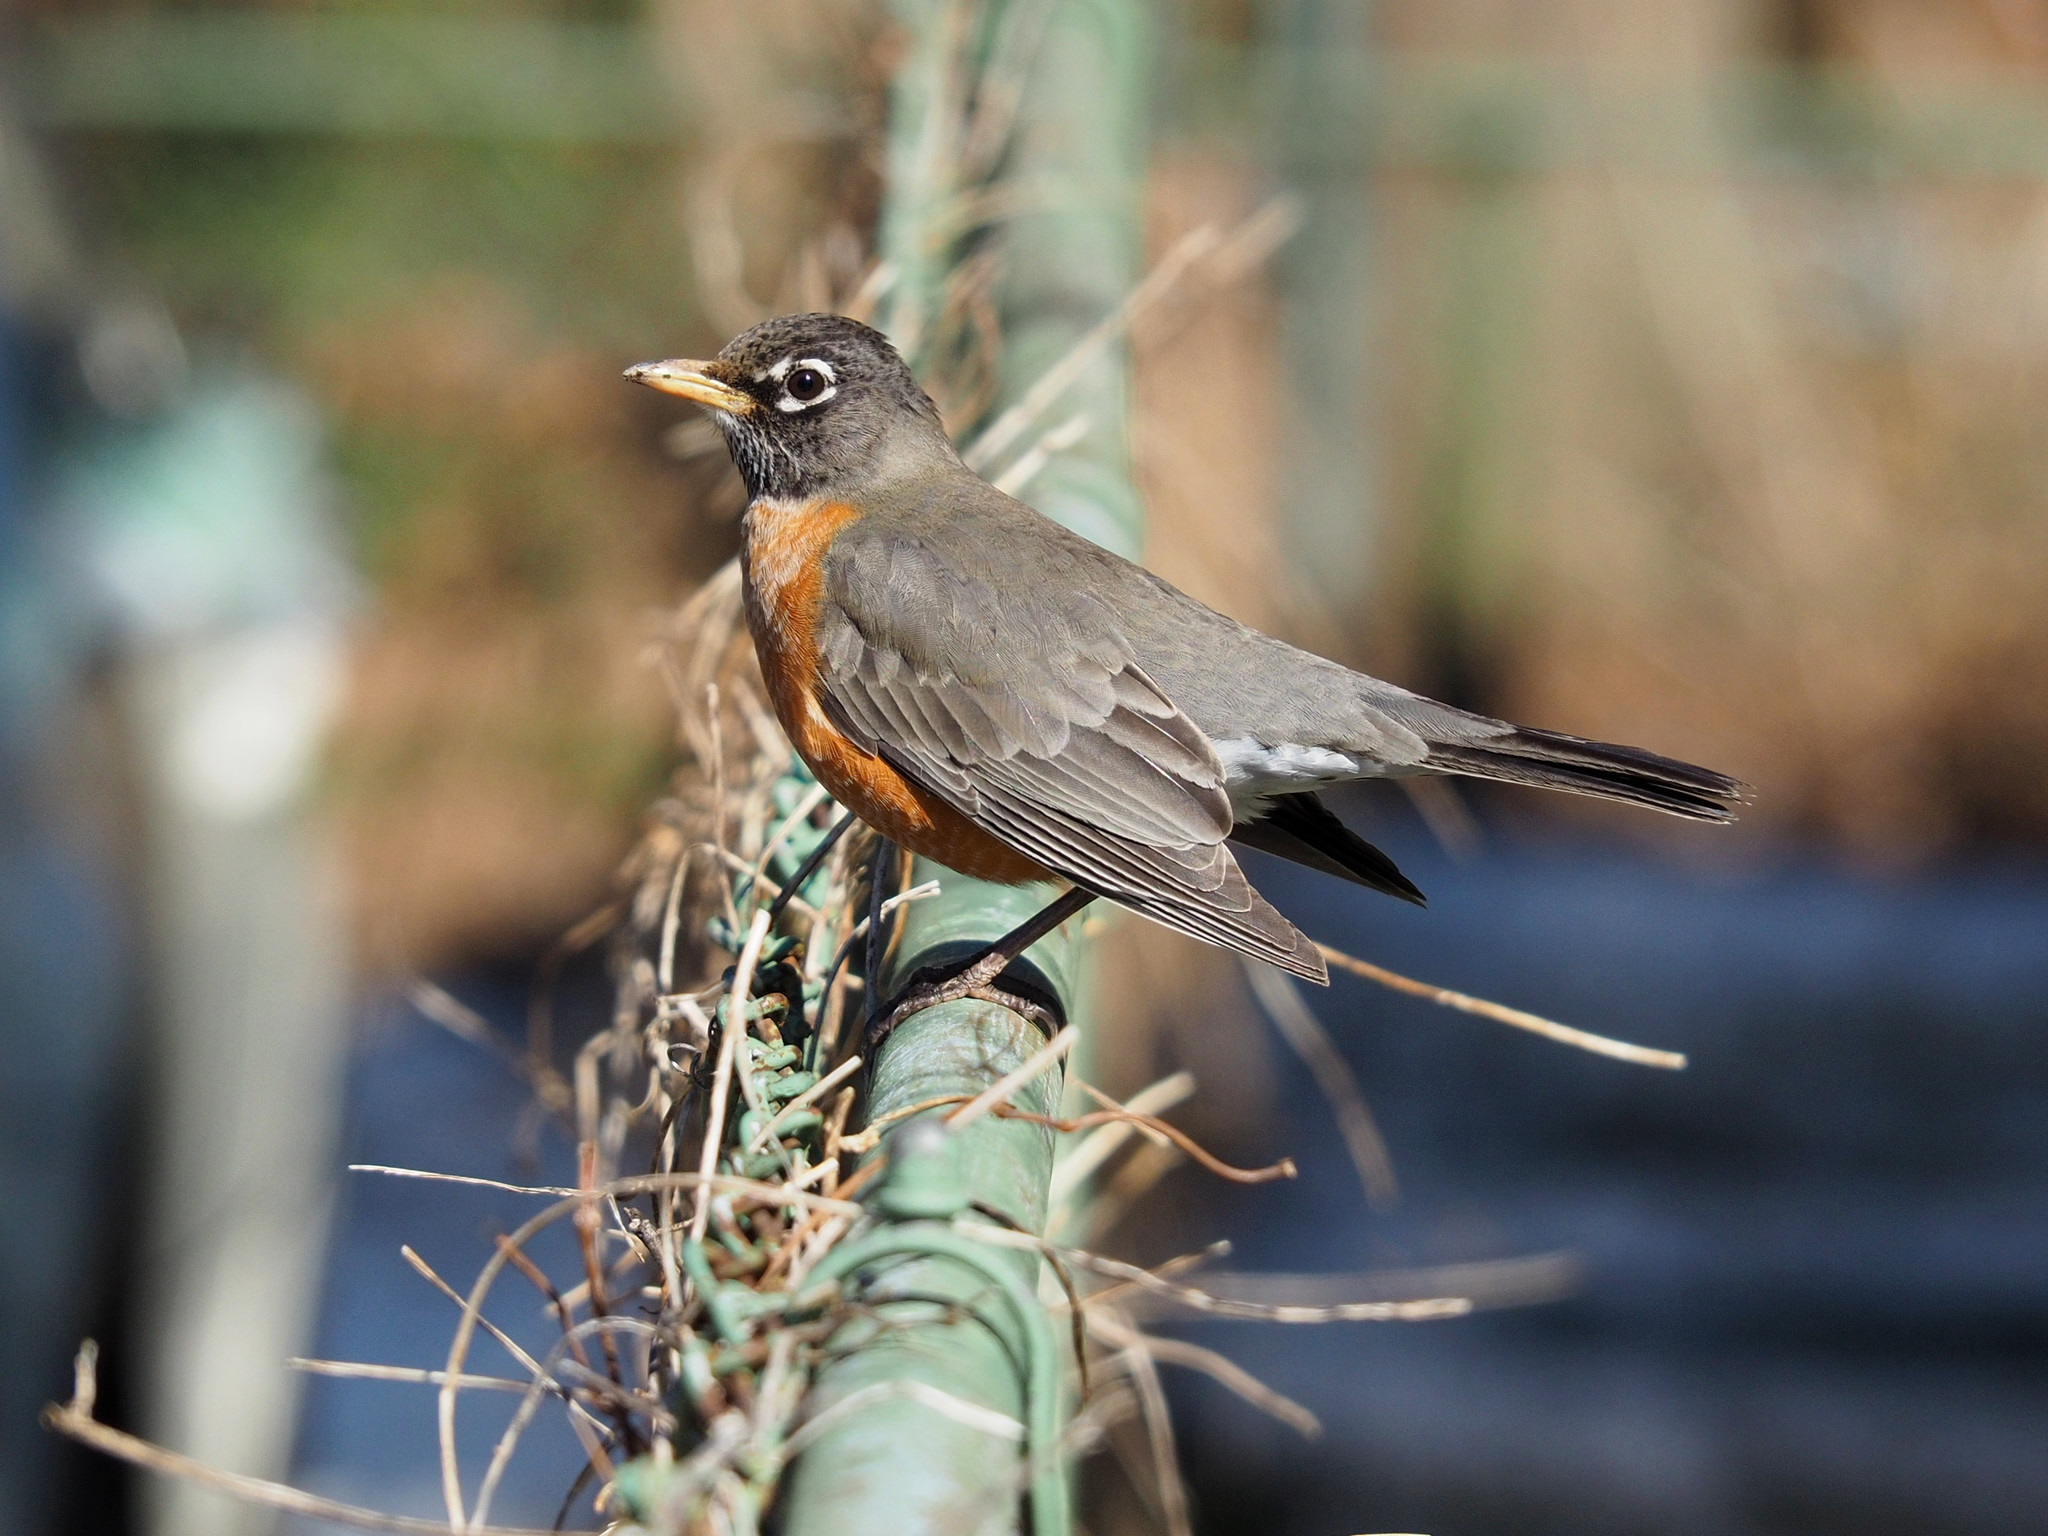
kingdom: Animalia
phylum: Chordata
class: Aves
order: Passeriformes
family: Turdidae
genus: Turdus
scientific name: Turdus migratorius
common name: American robin
